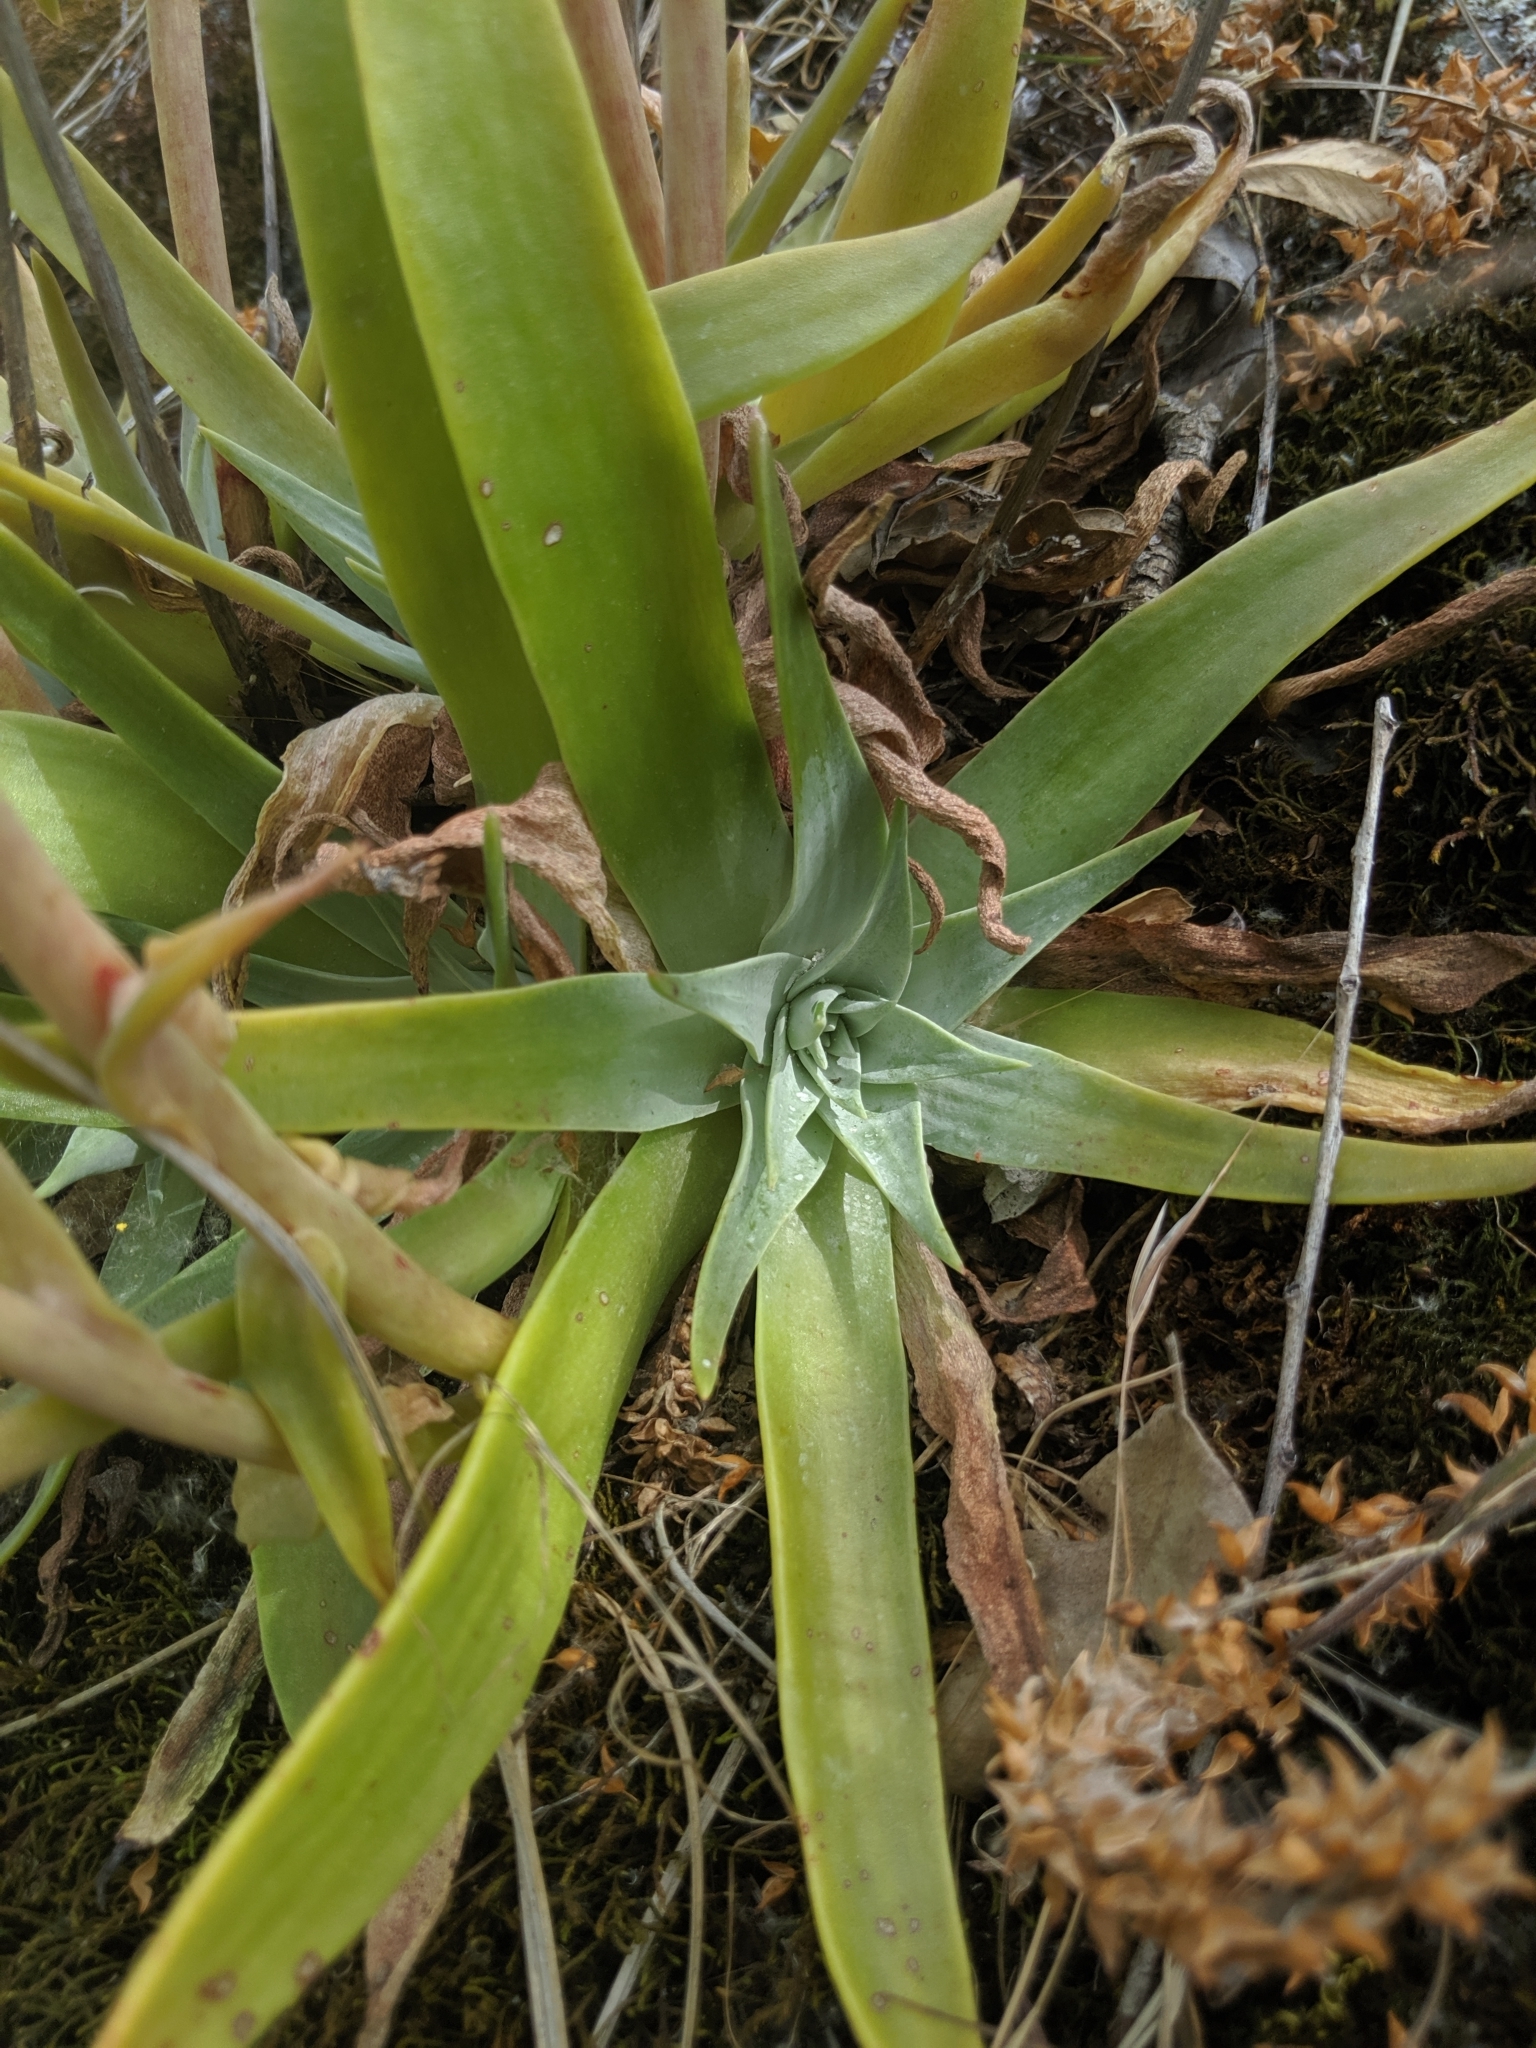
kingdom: Plantae
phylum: Tracheophyta
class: Magnoliopsida
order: Saxifragales
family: Crassulaceae
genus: Dudleya
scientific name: Dudleya lanceolata
